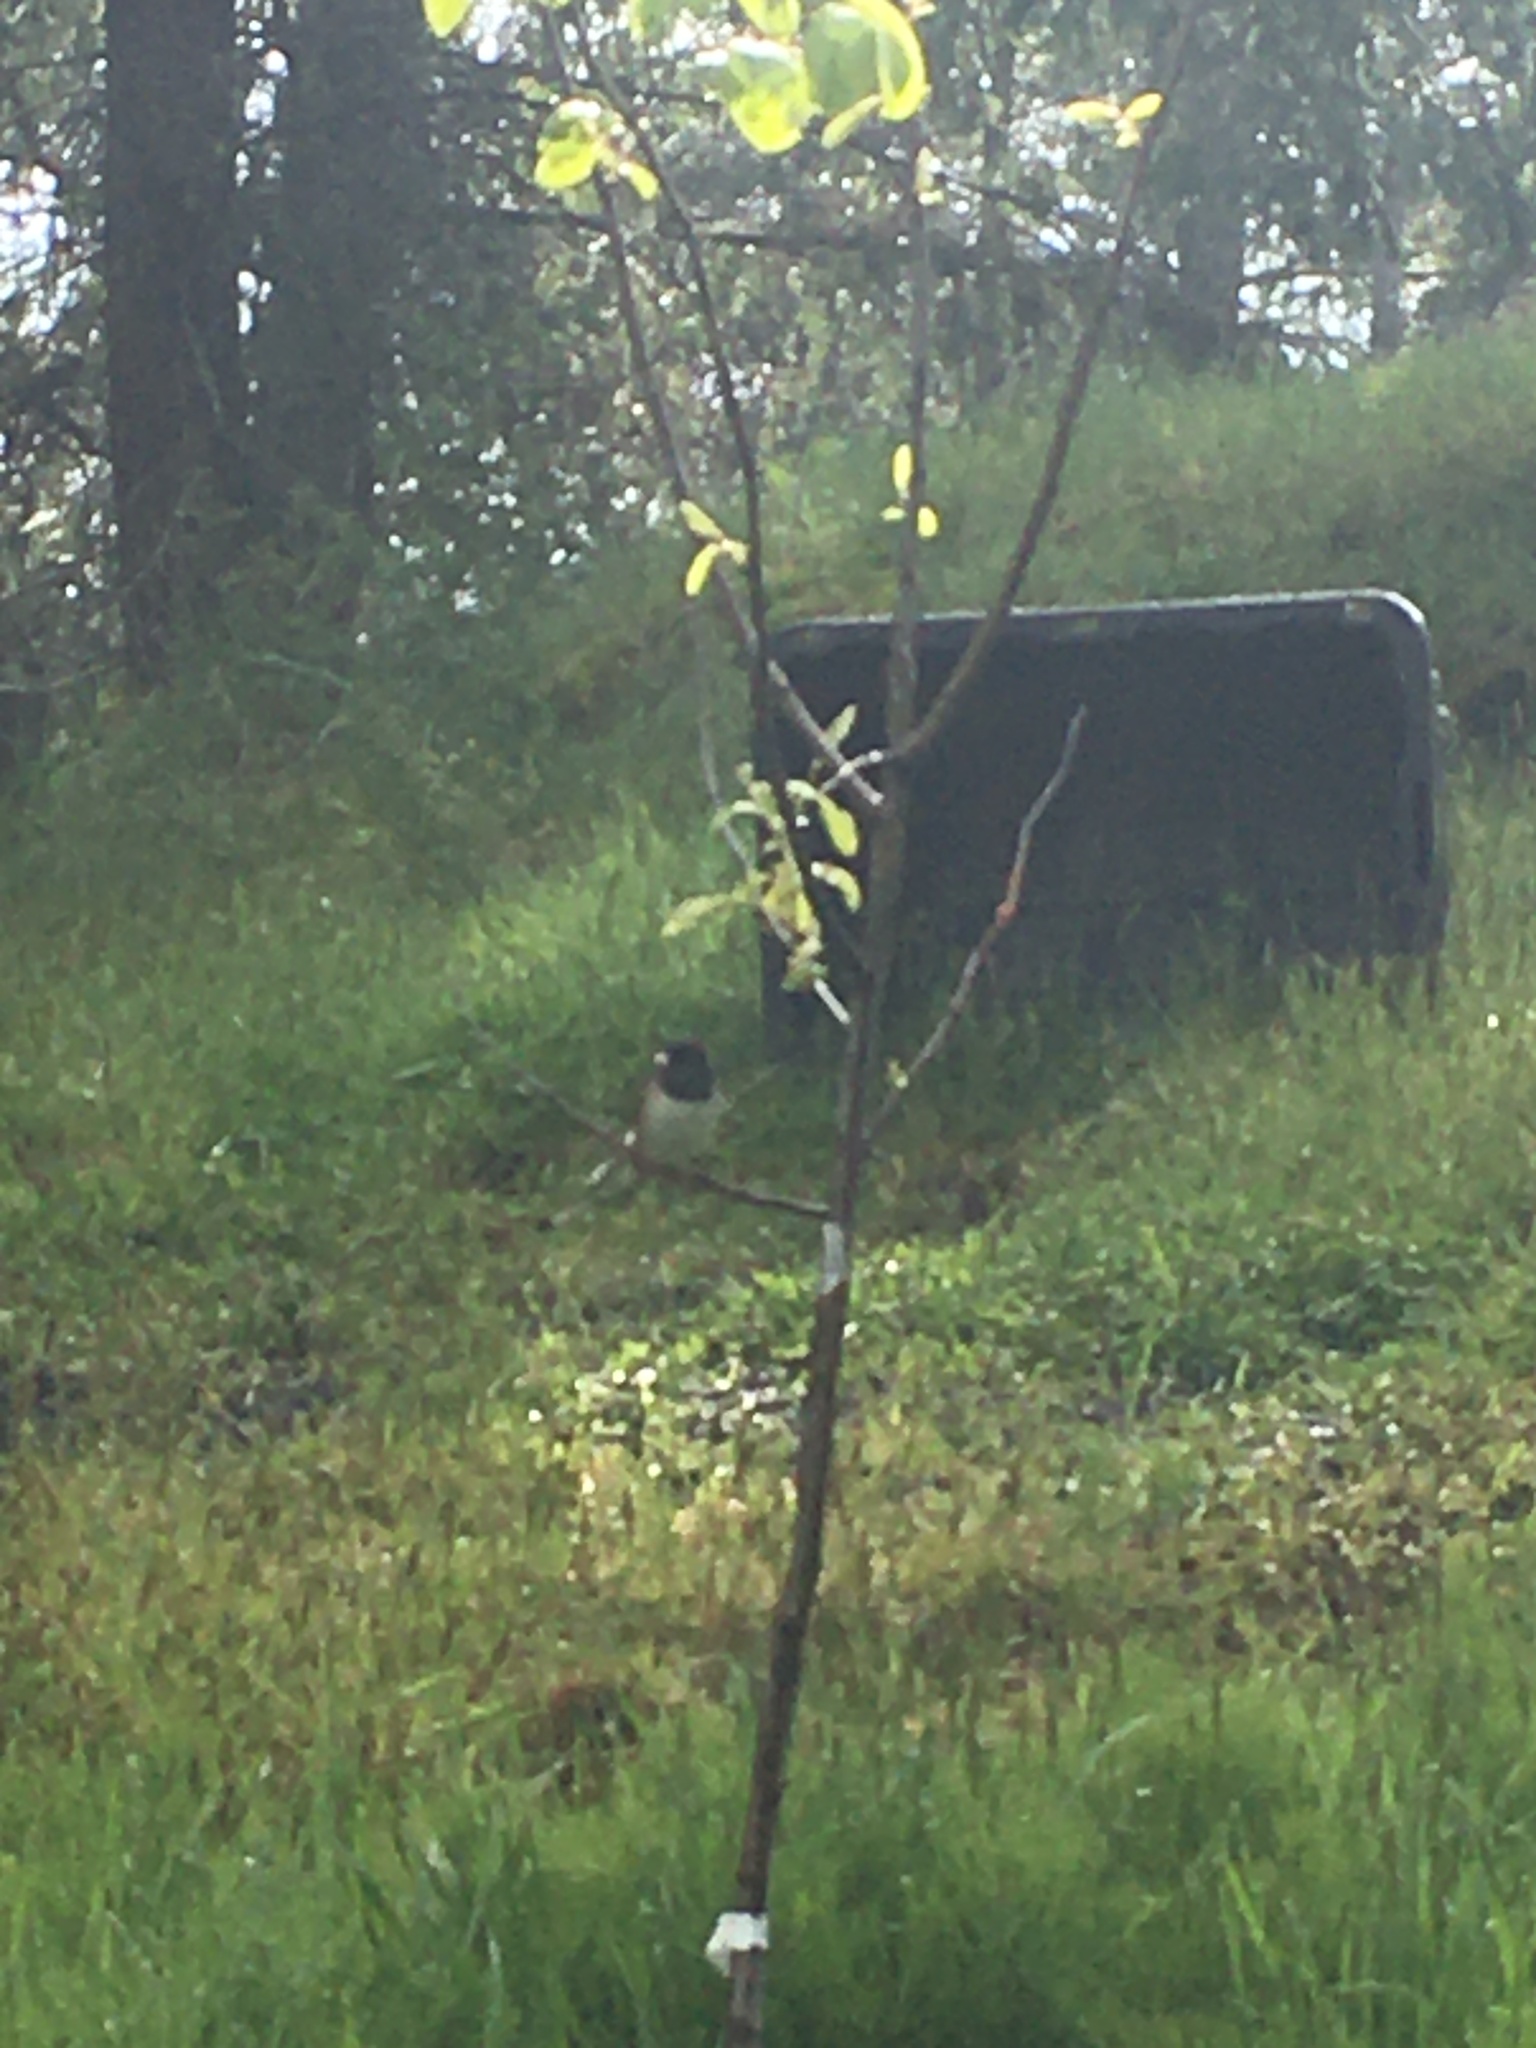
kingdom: Animalia
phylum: Chordata
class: Aves
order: Passeriformes
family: Passerellidae
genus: Junco
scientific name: Junco hyemalis
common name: Dark-eyed junco
